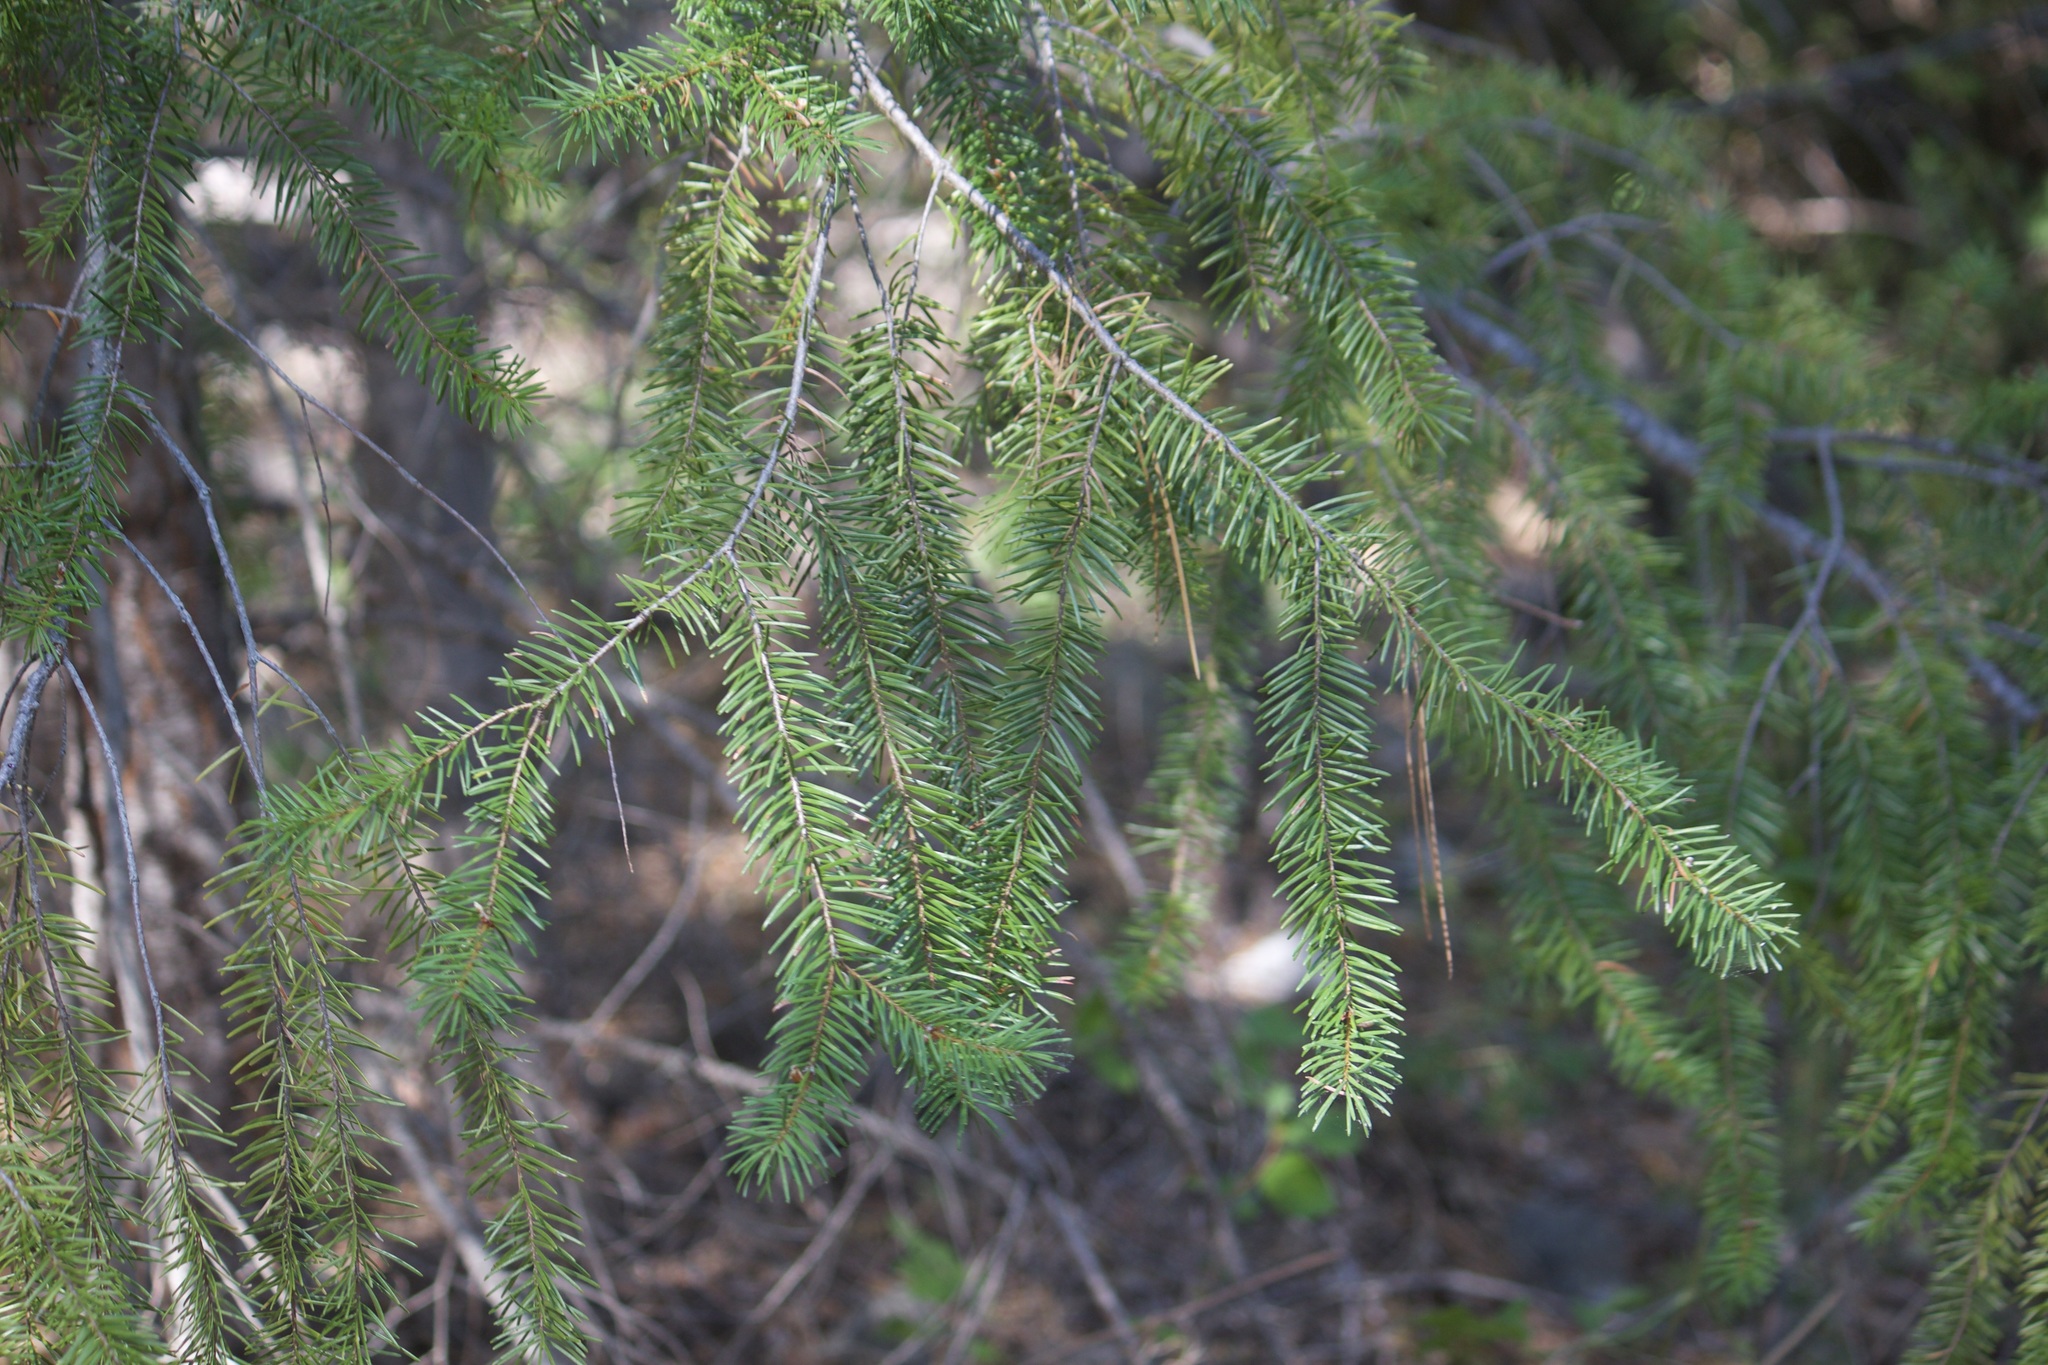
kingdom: Plantae
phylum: Tracheophyta
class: Pinopsida
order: Pinales
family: Pinaceae
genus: Pseudotsuga
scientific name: Pseudotsuga menziesii
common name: Douglas fir
